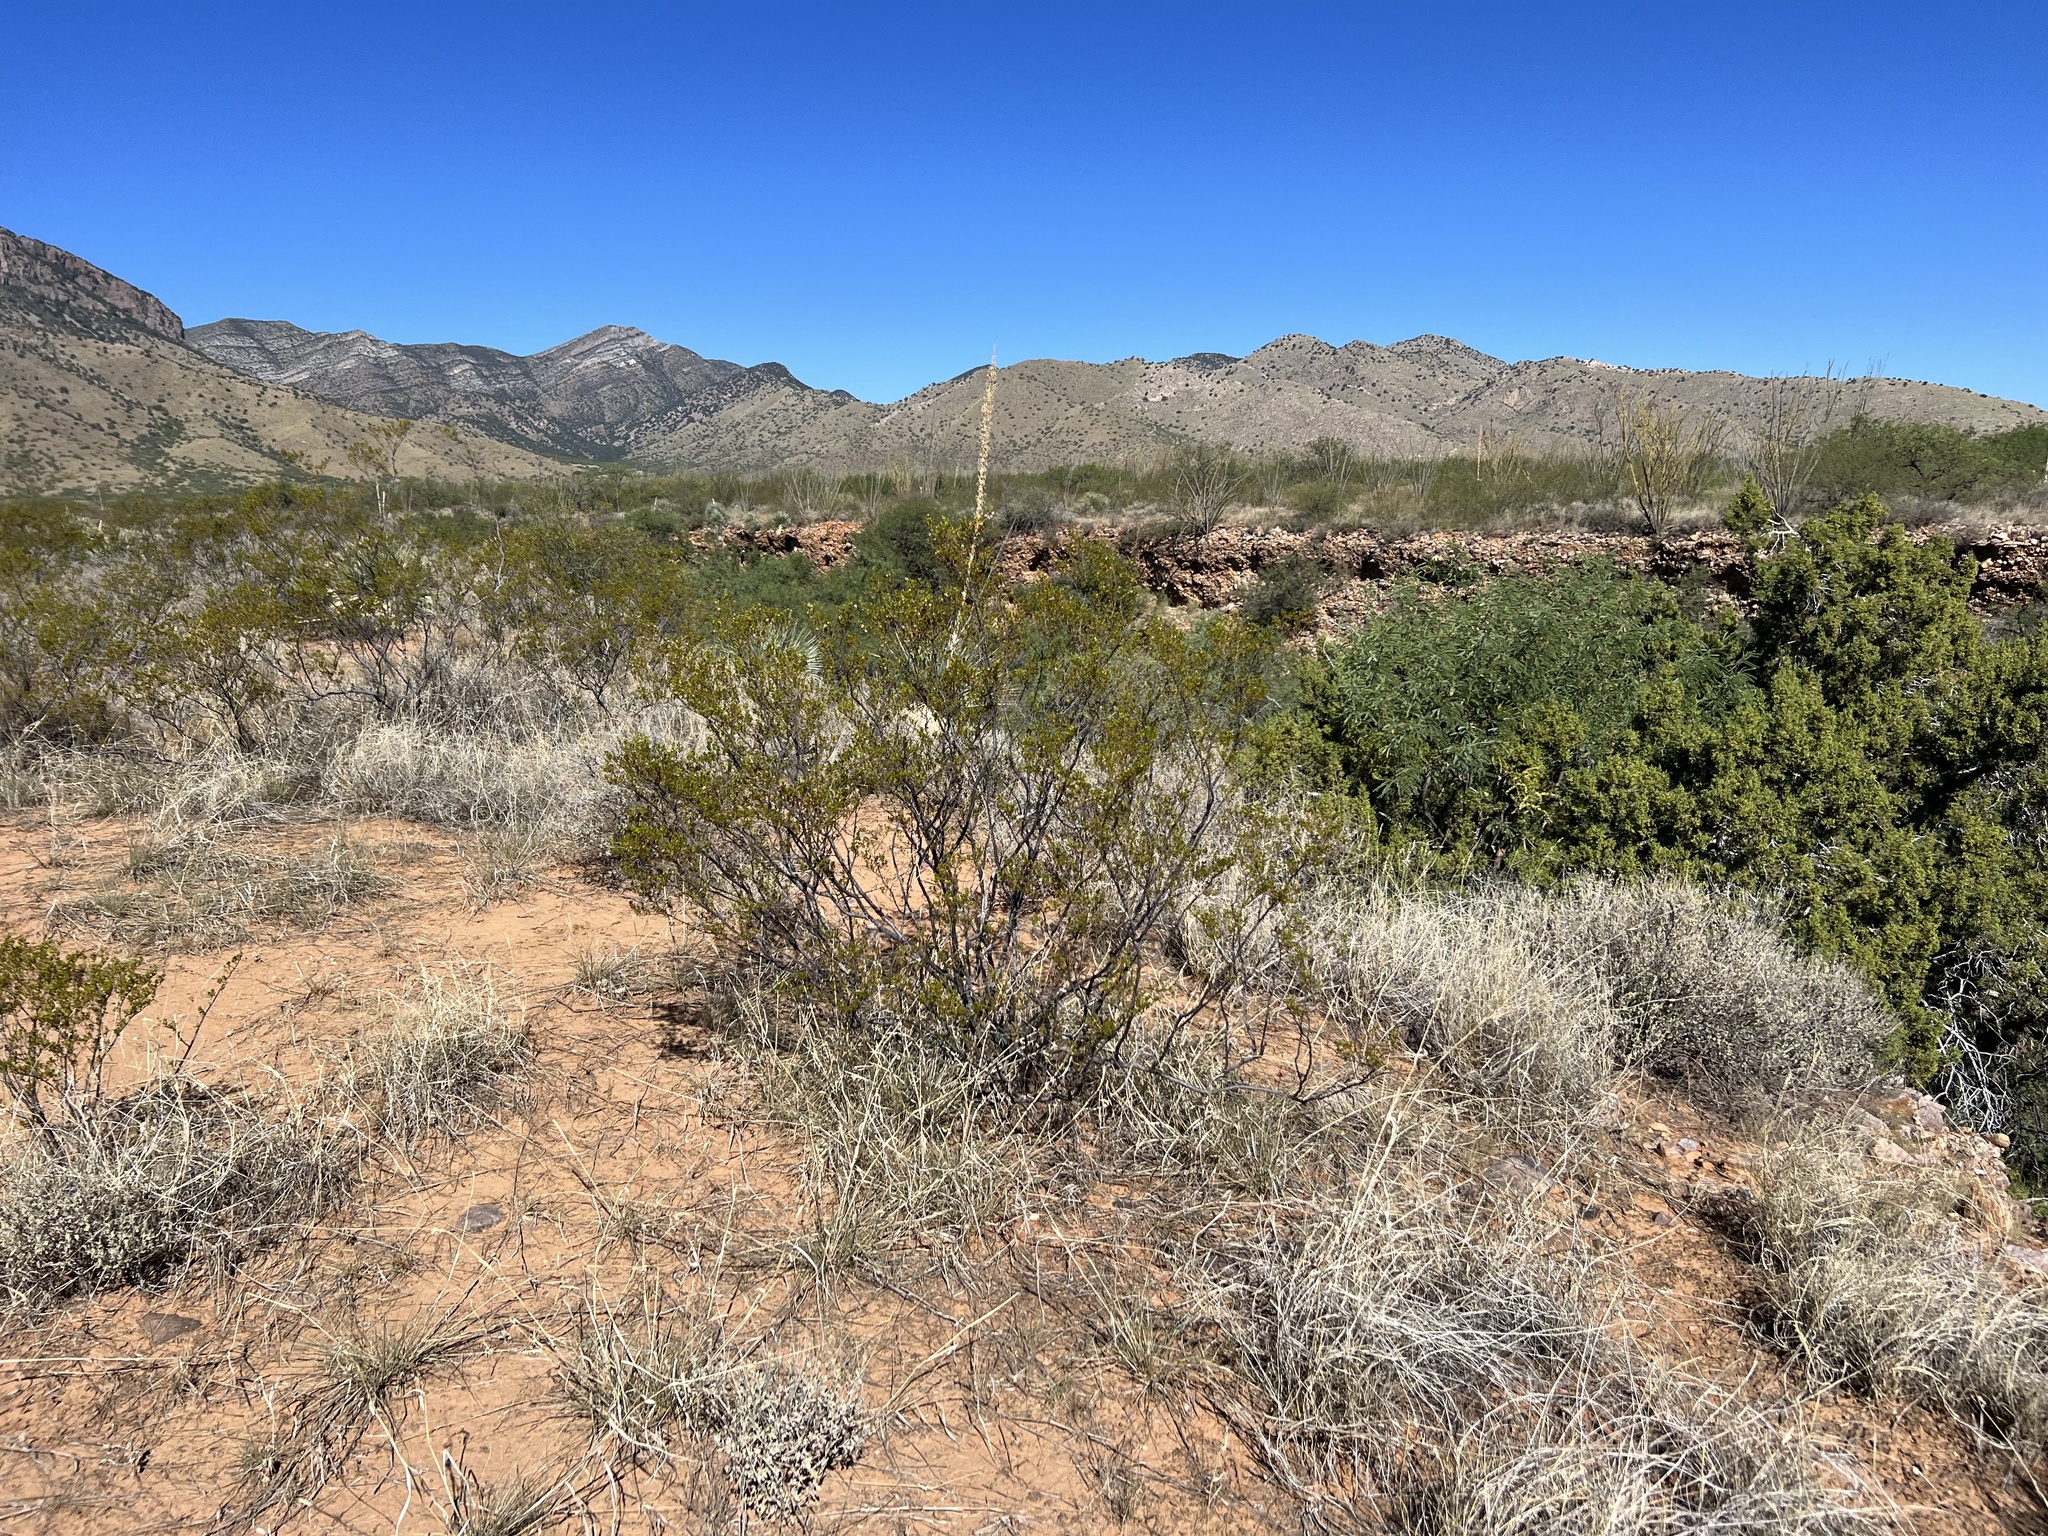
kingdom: Plantae
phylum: Tracheophyta
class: Magnoliopsida
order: Zygophyllales
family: Zygophyllaceae
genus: Larrea
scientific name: Larrea tridentata
